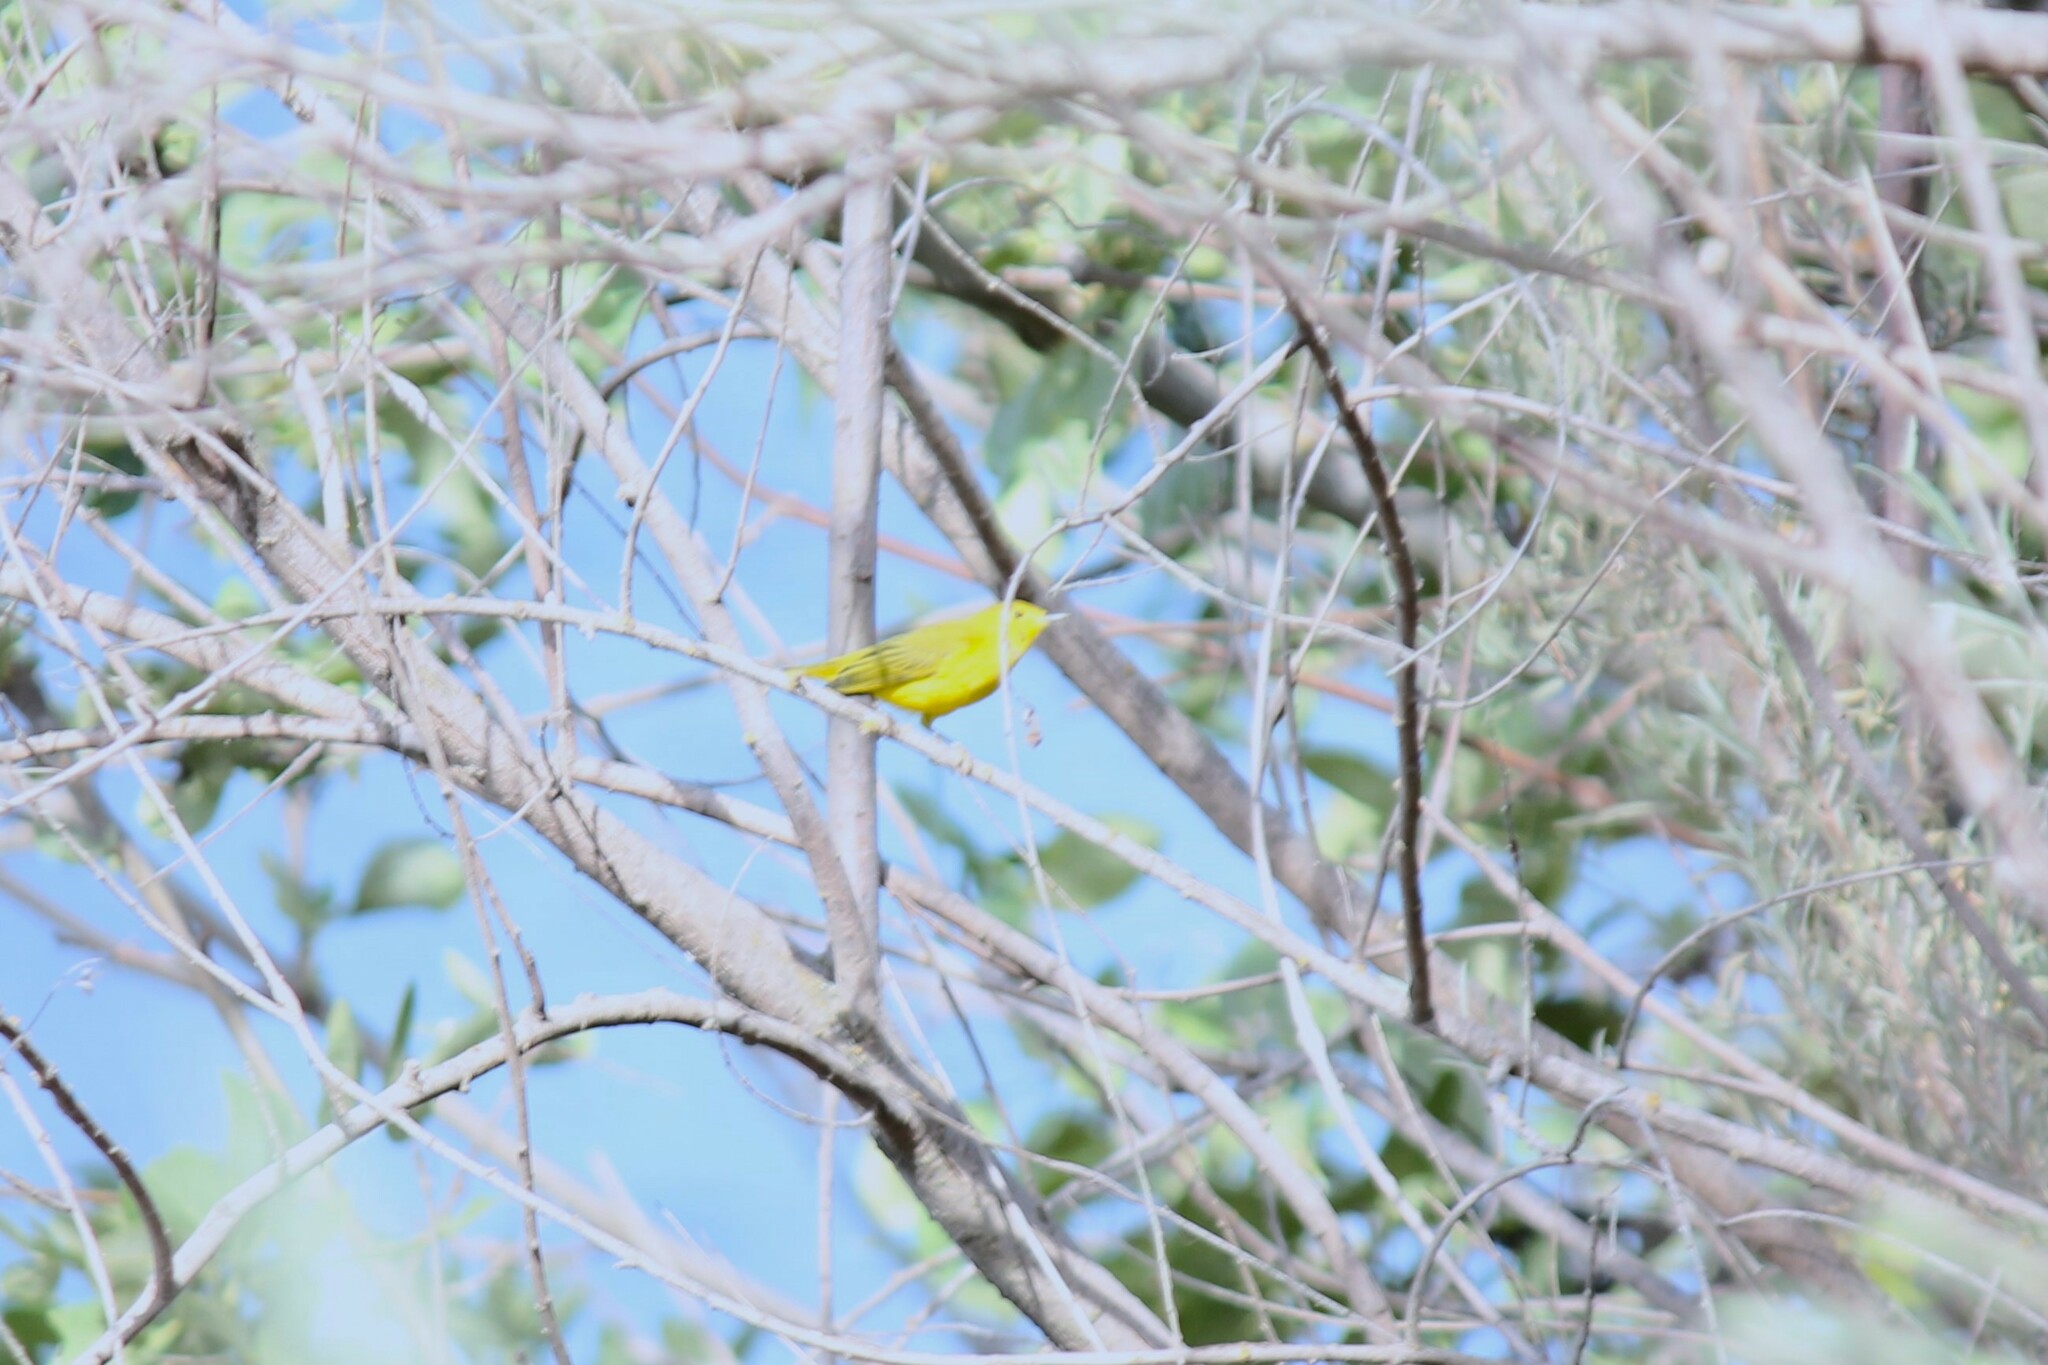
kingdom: Animalia
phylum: Chordata
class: Aves
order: Passeriformes
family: Parulidae
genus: Setophaga
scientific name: Setophaga petechia
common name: Yellow warbler
